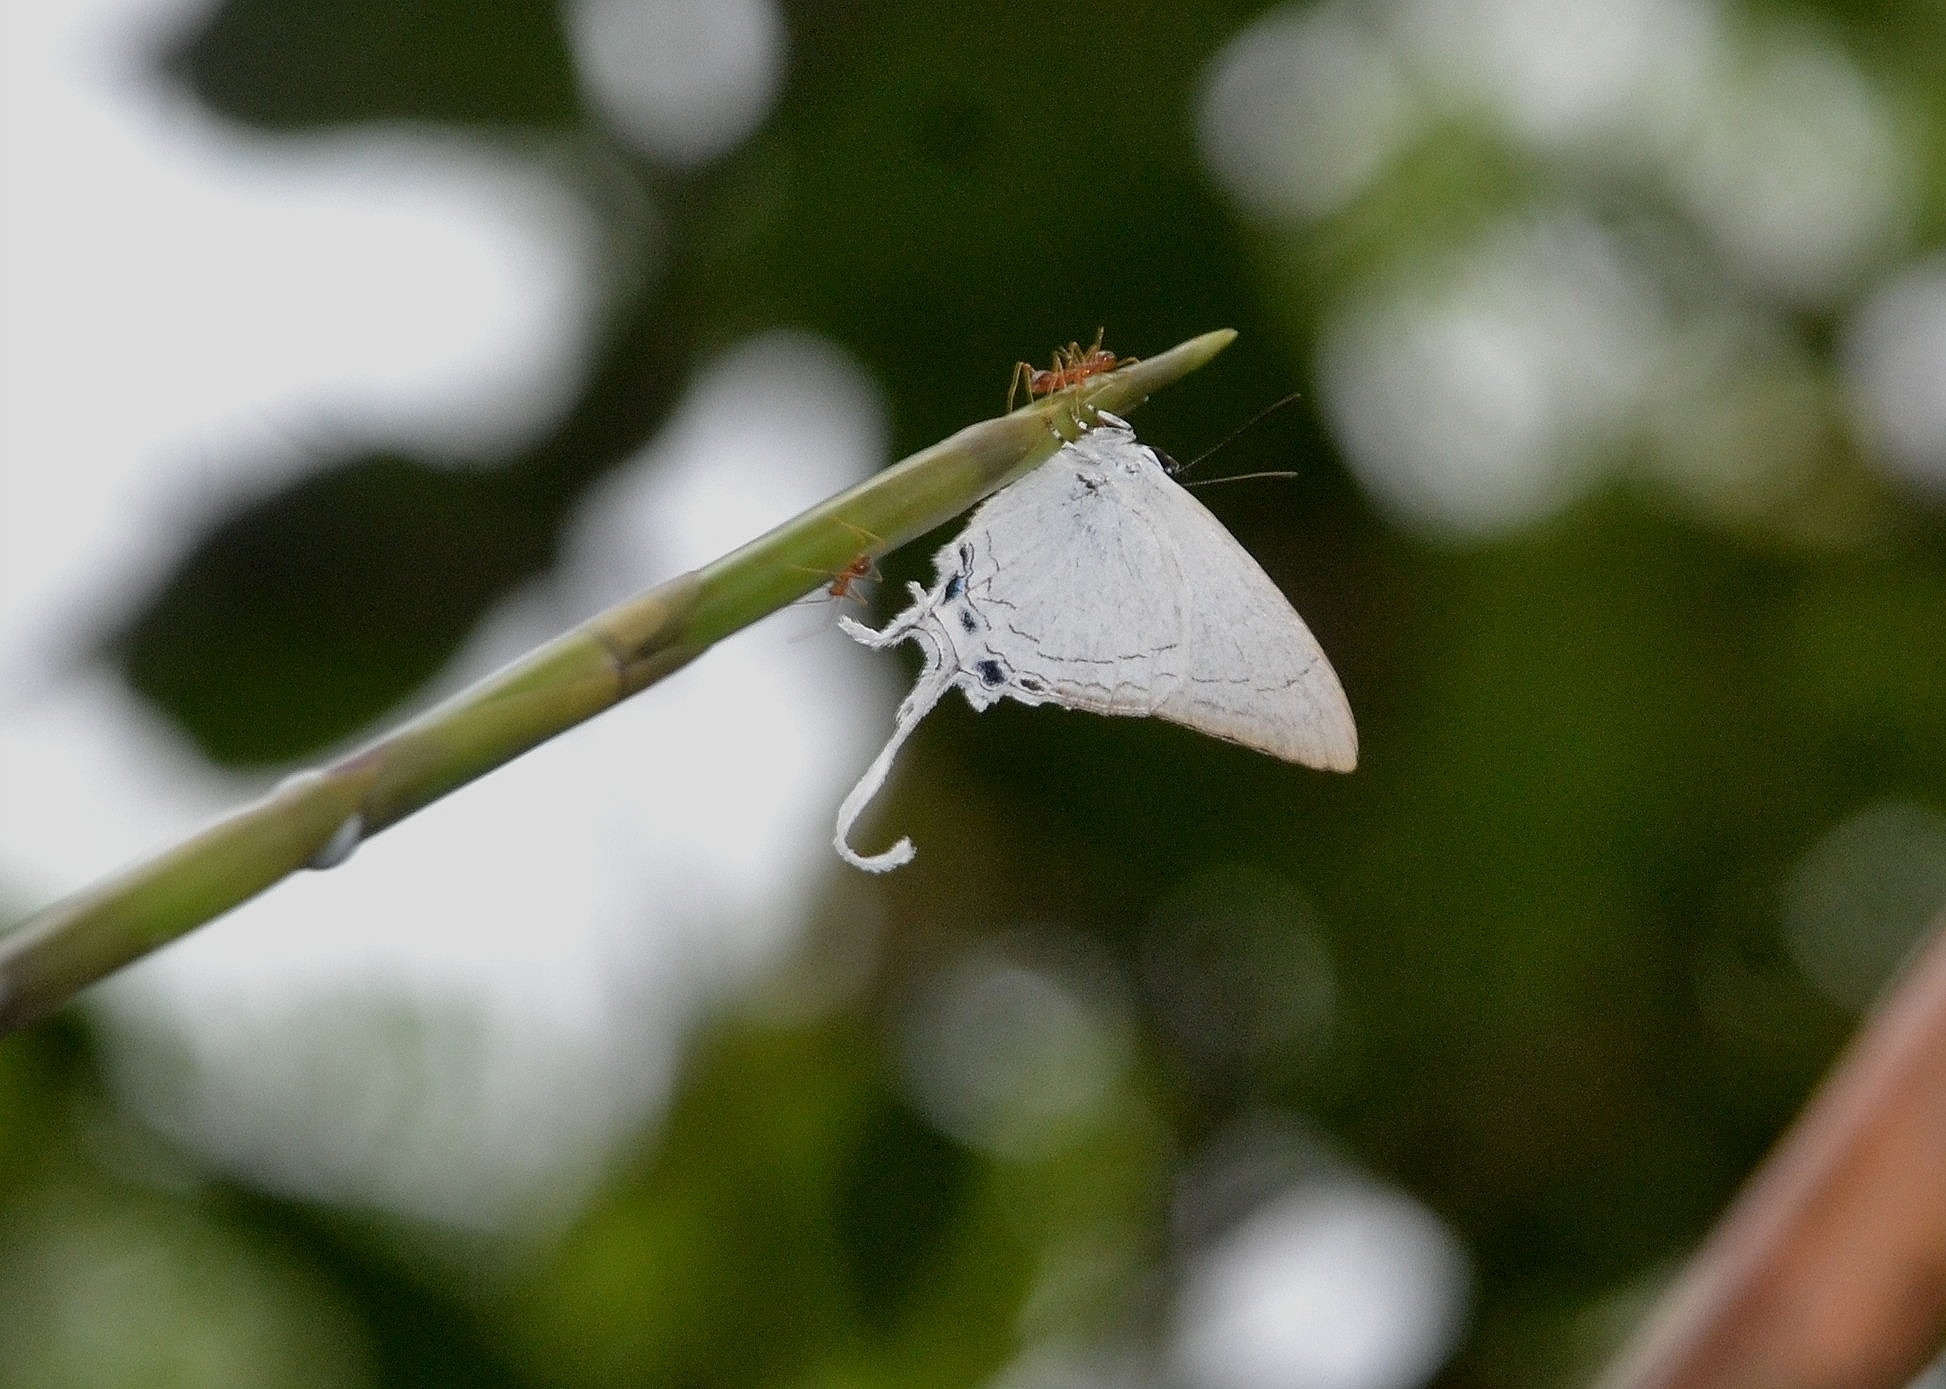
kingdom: Animalia
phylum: Arthropoda
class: Insecta
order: Lepidoptera
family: Lycaenidae
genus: Cheritra
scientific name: Cheritra freja
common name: Common imperial
